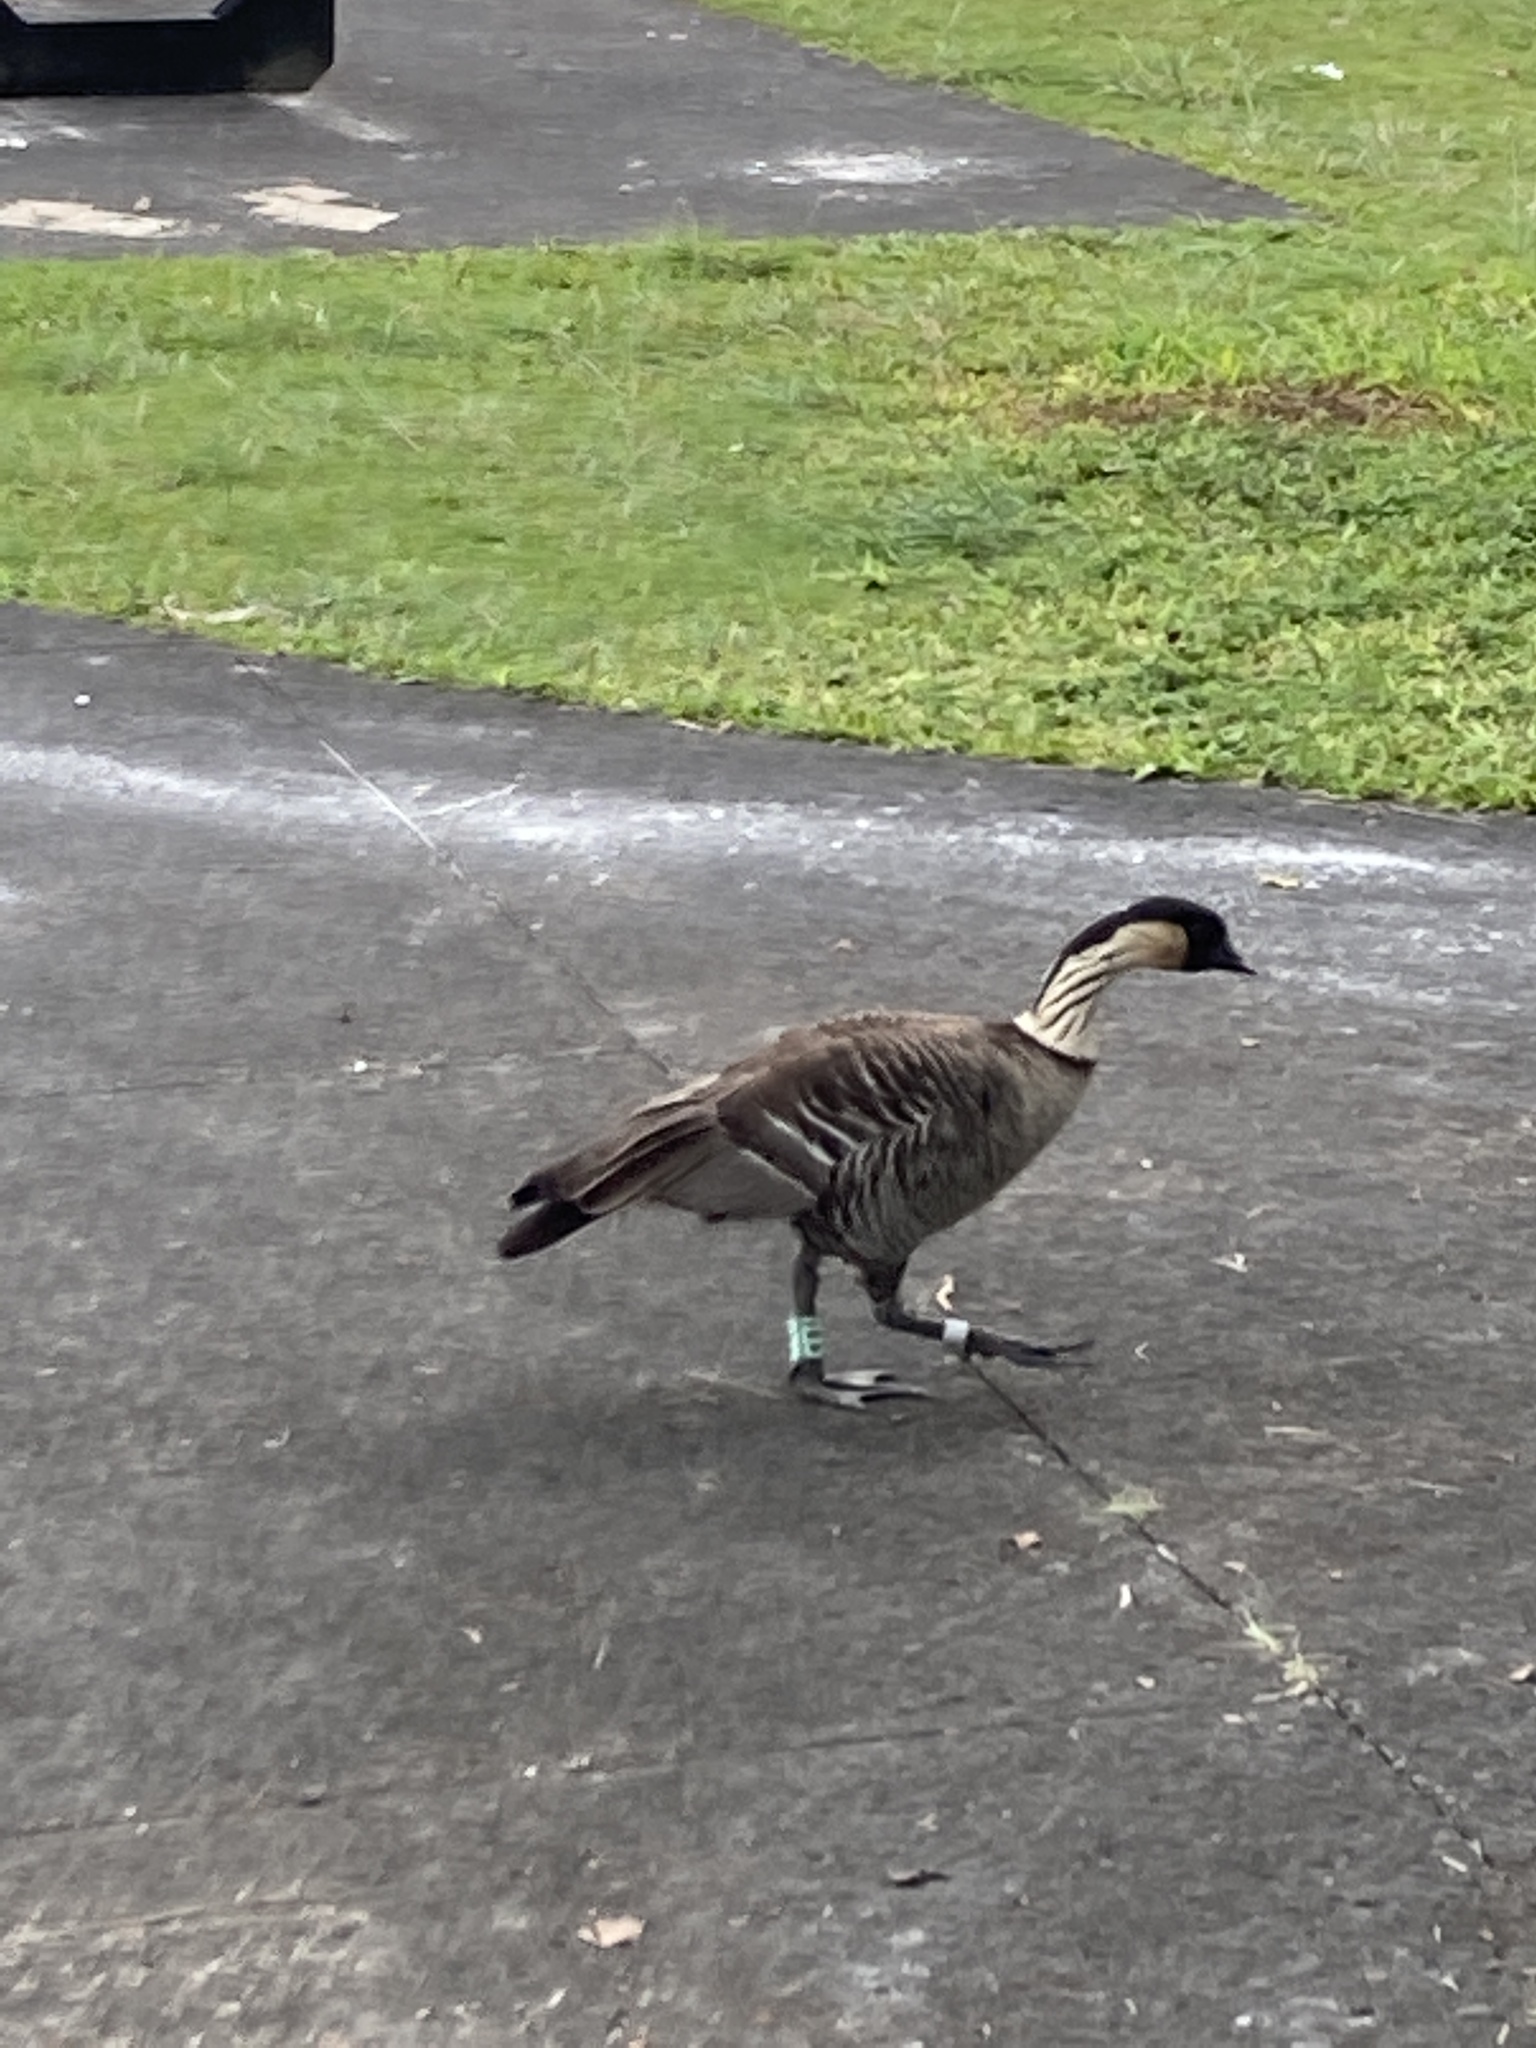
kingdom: Animalia
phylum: Chordata
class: Aves
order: Anseriformes
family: Anatidae
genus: Branta
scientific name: Branta sandvicensis
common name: Nene
